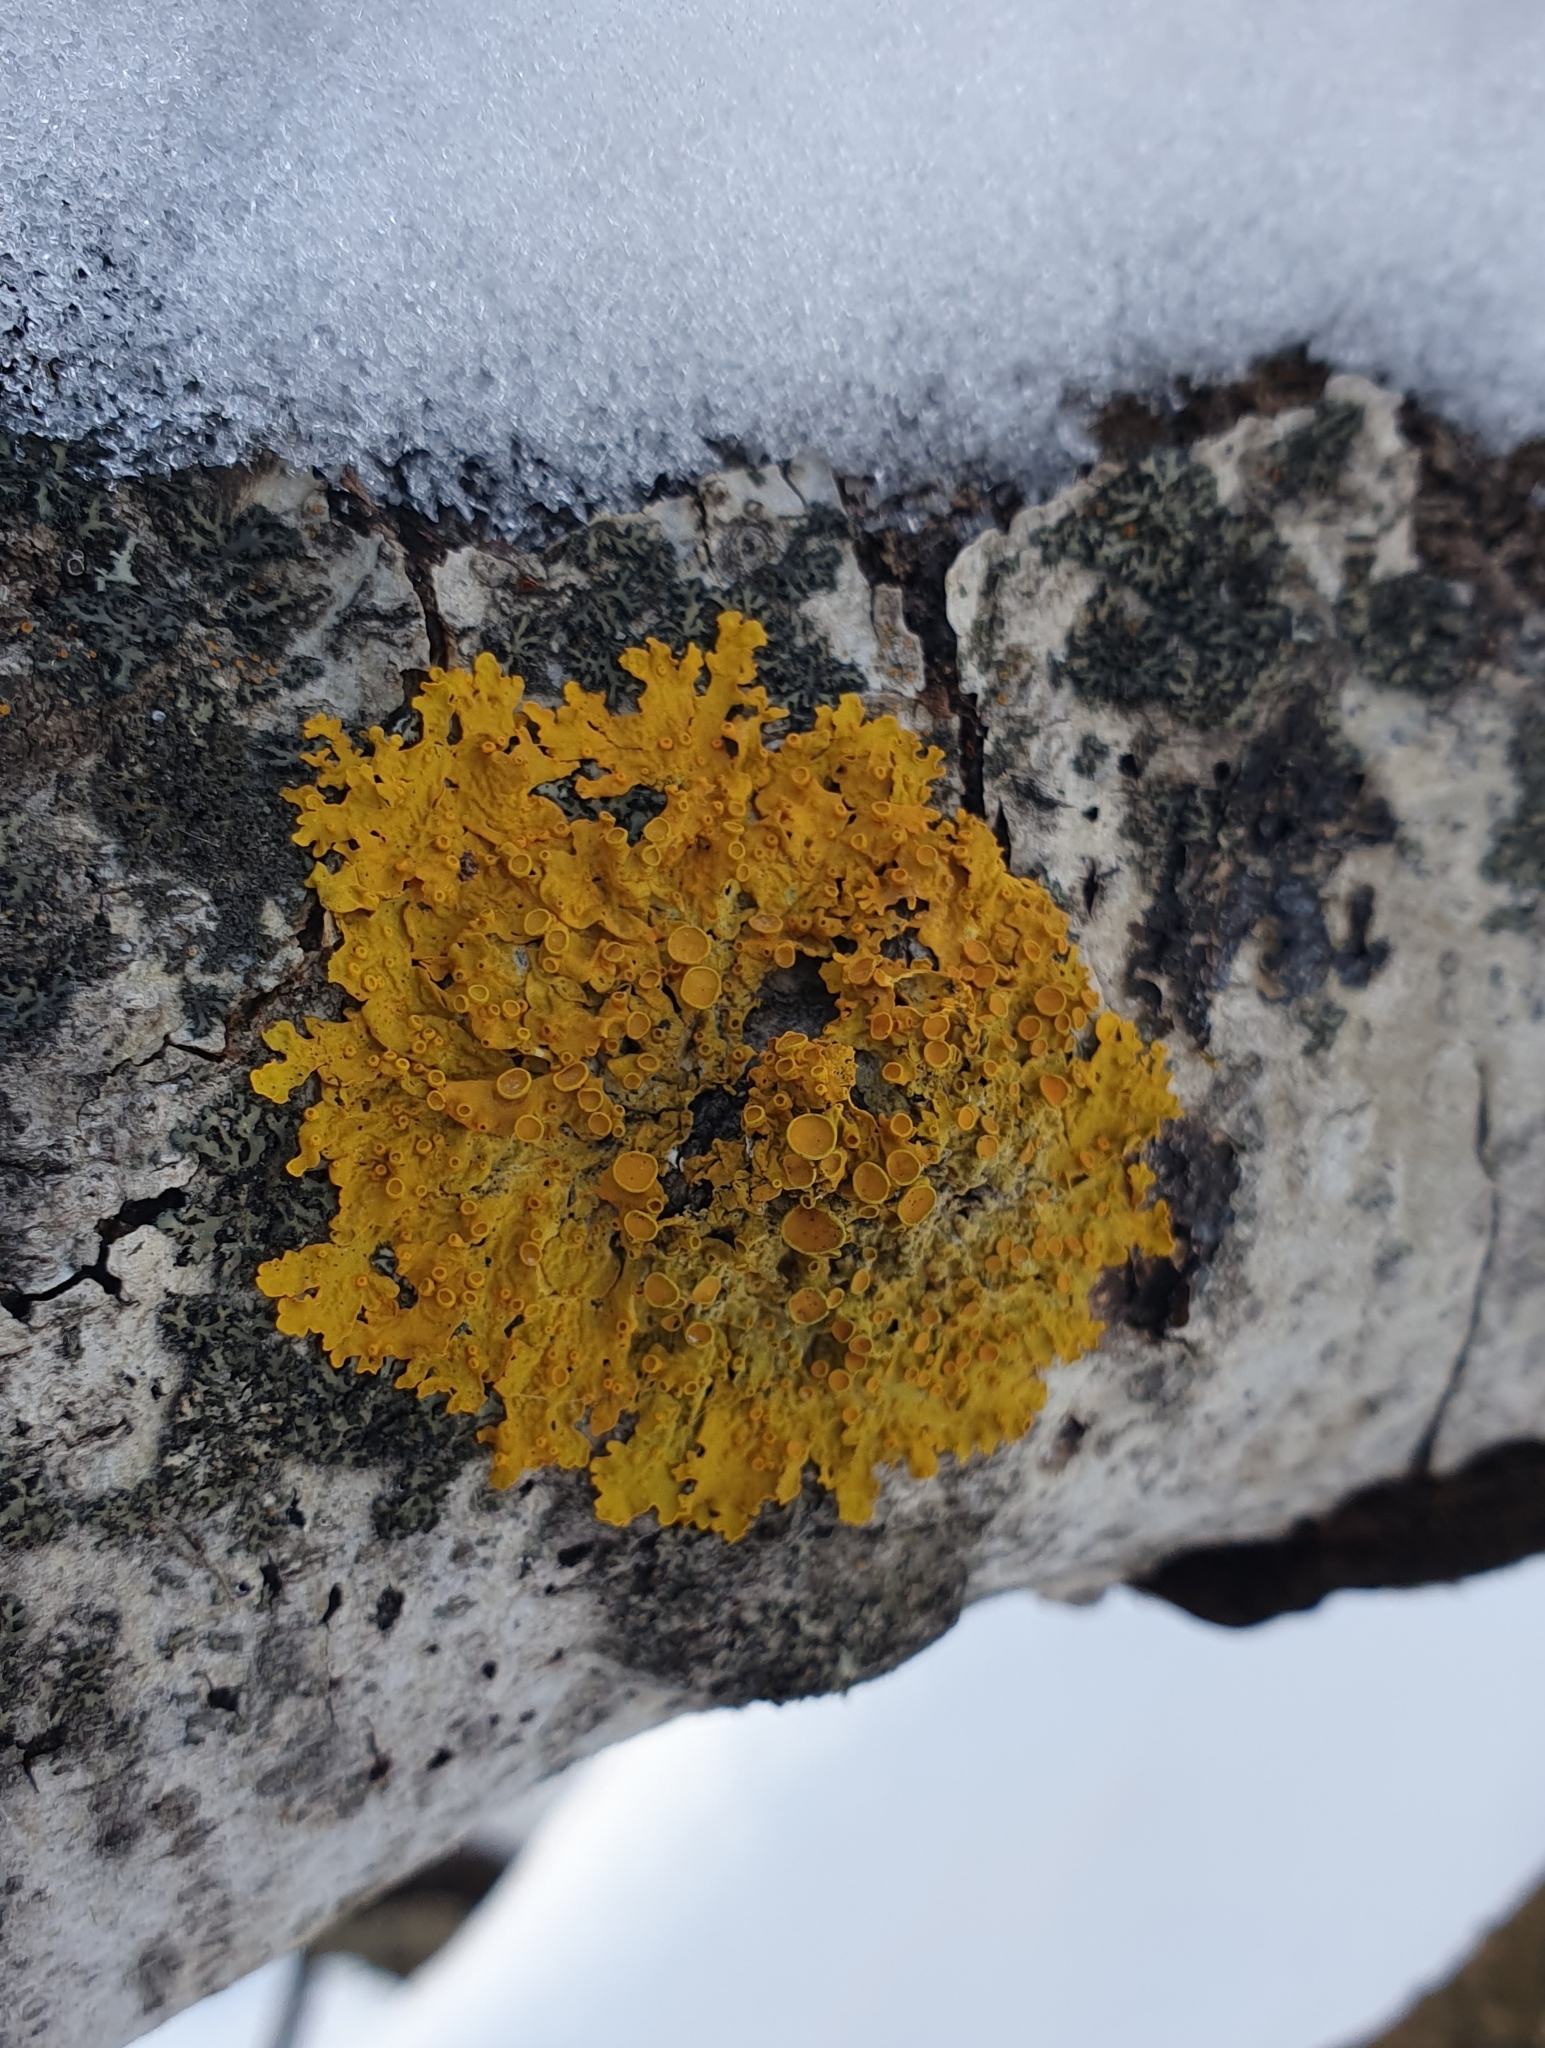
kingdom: Fungi
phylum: Ascomycota
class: Lecanoromycetes
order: Teloschistales
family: Teloschistaceae
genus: Xanthoria
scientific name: Xanthoria parietina
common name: Common orange lichen
